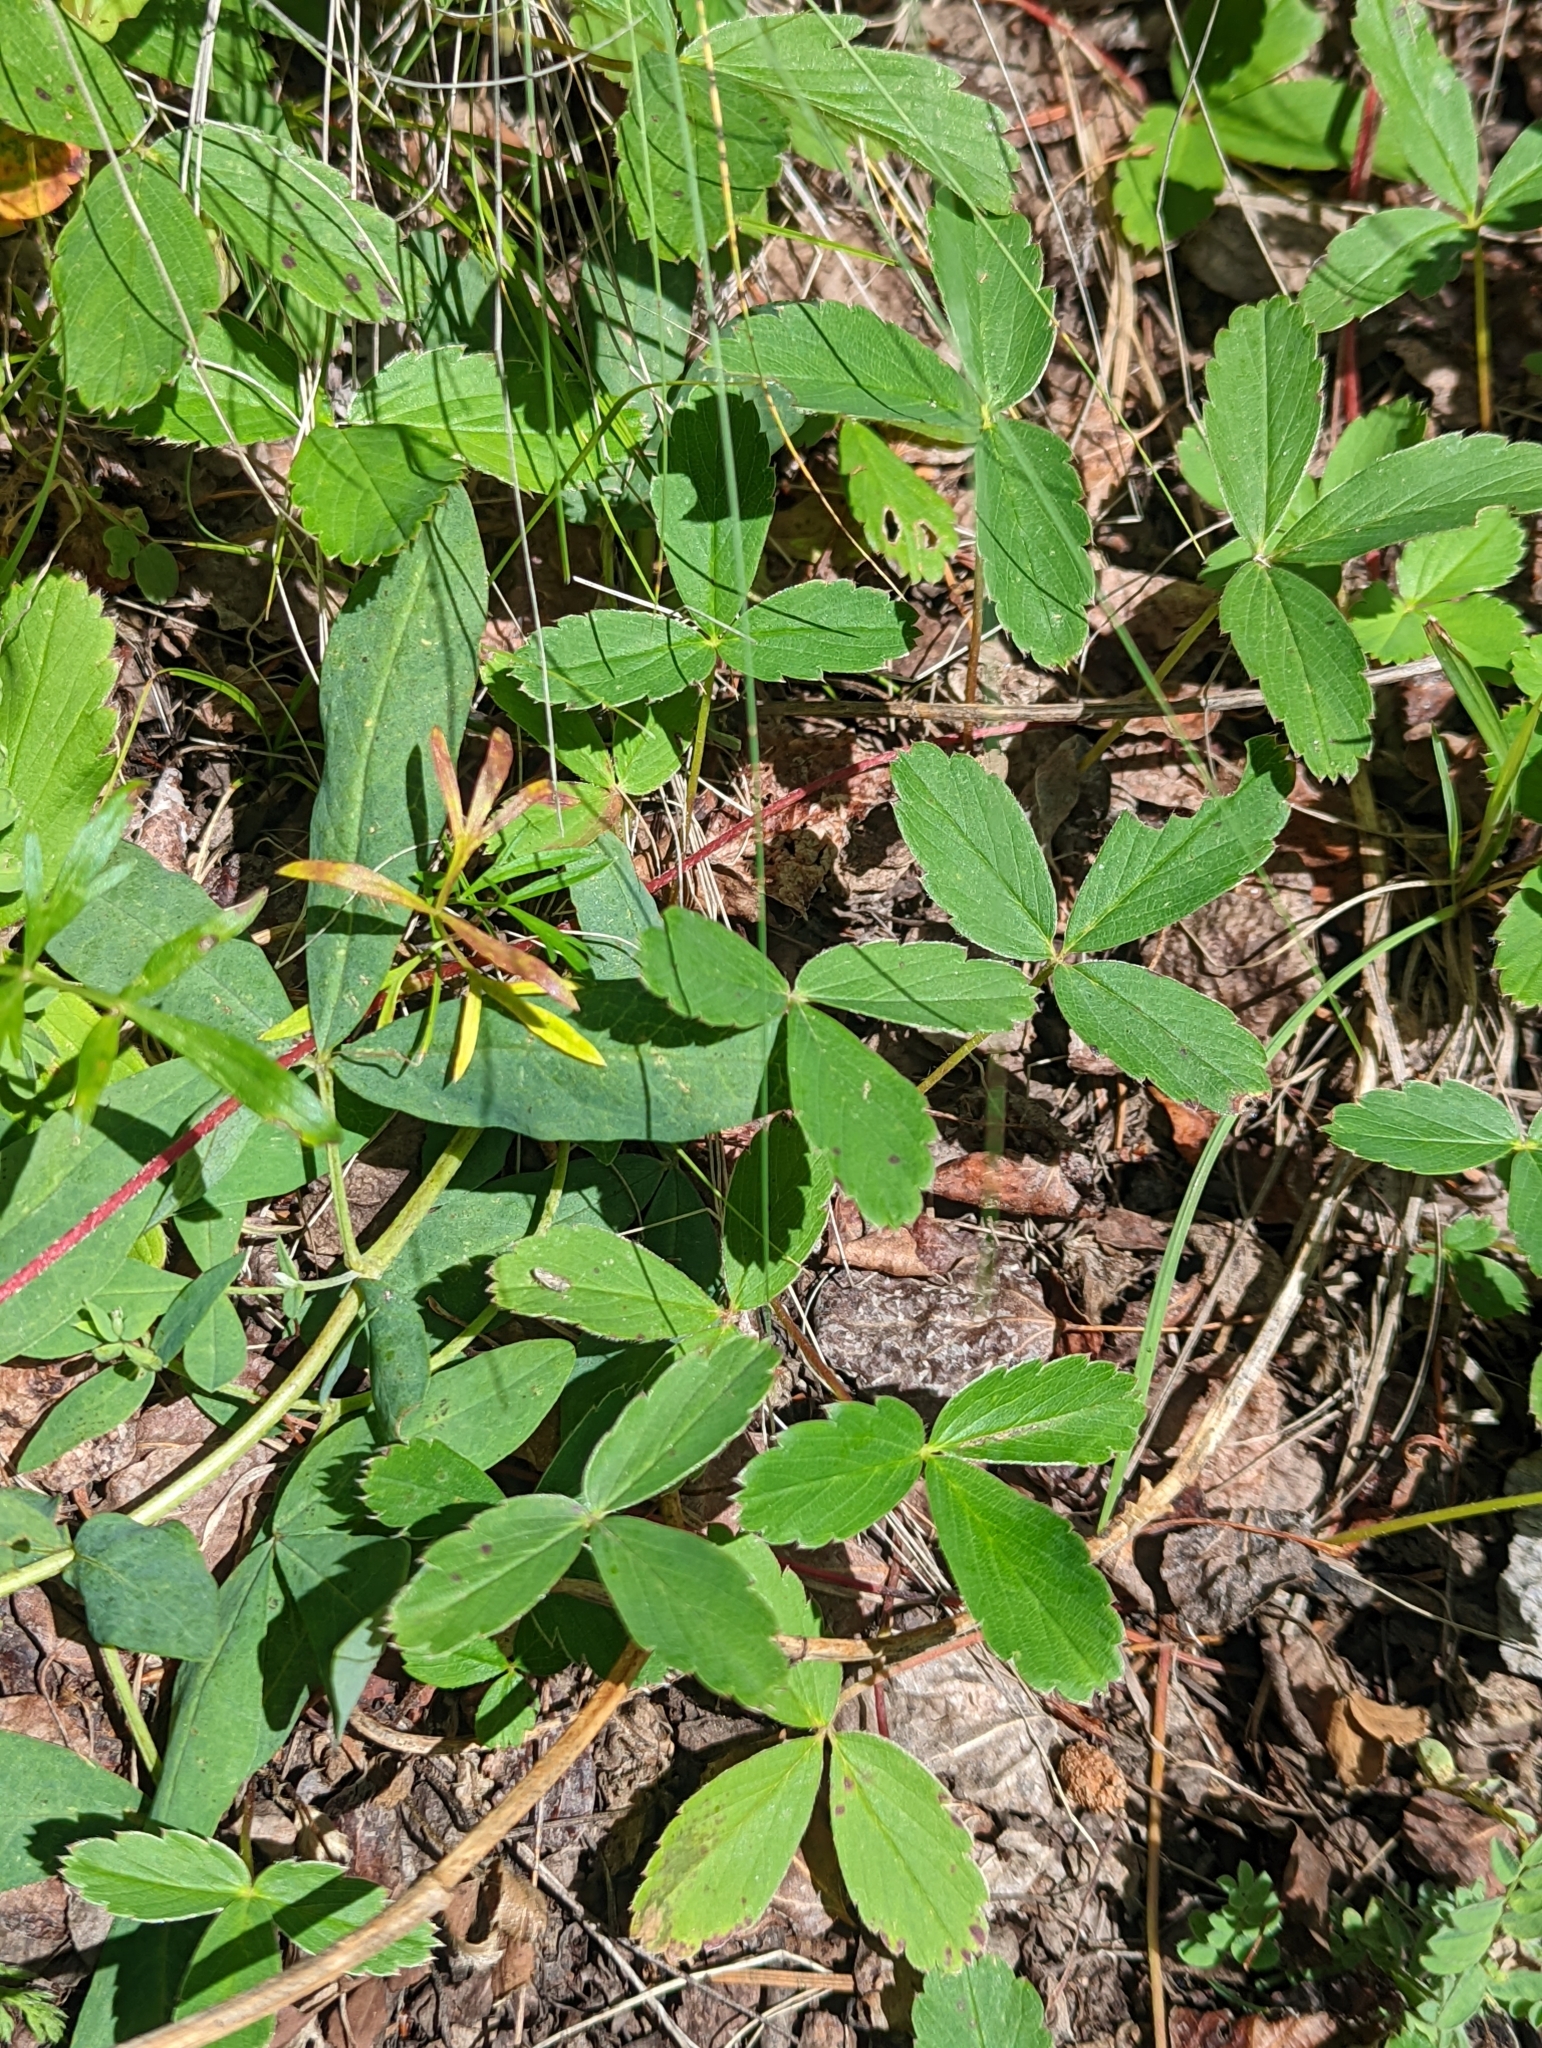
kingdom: Plantae
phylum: Tracheophyta
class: Magnoliopsida
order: Rosales
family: Rosaceae
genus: Fragaria
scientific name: Fragaria virginiana
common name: Thickleaved wild strawberry
